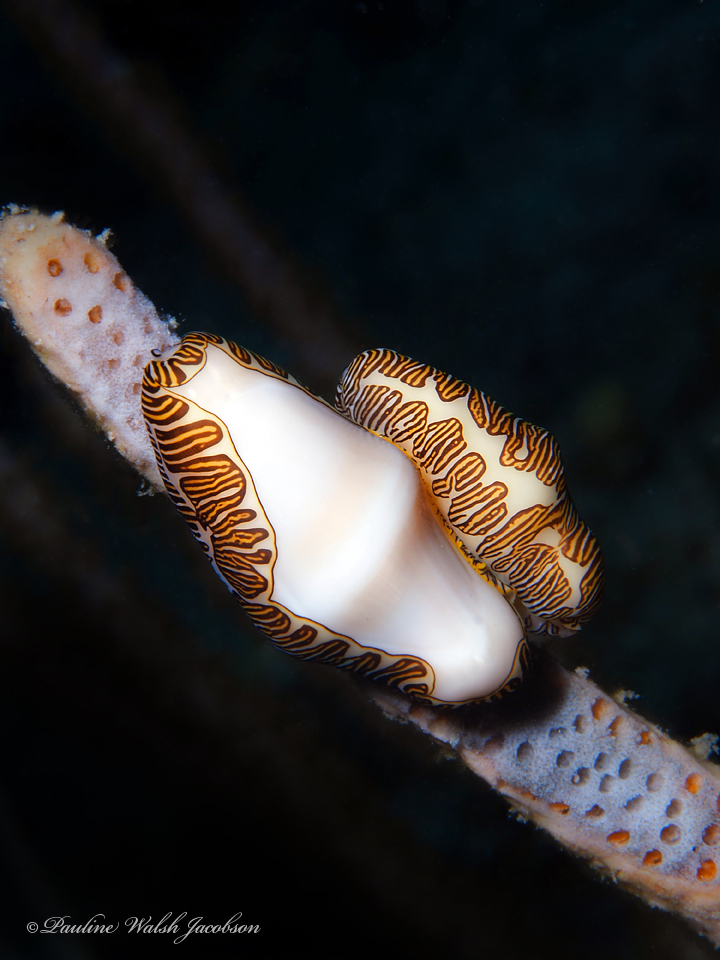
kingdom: Animalia
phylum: Mollusca
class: Gastropoda
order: Littorinimorpha
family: Ovulidae
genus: Cyphoma
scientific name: Cyphoma signatum
